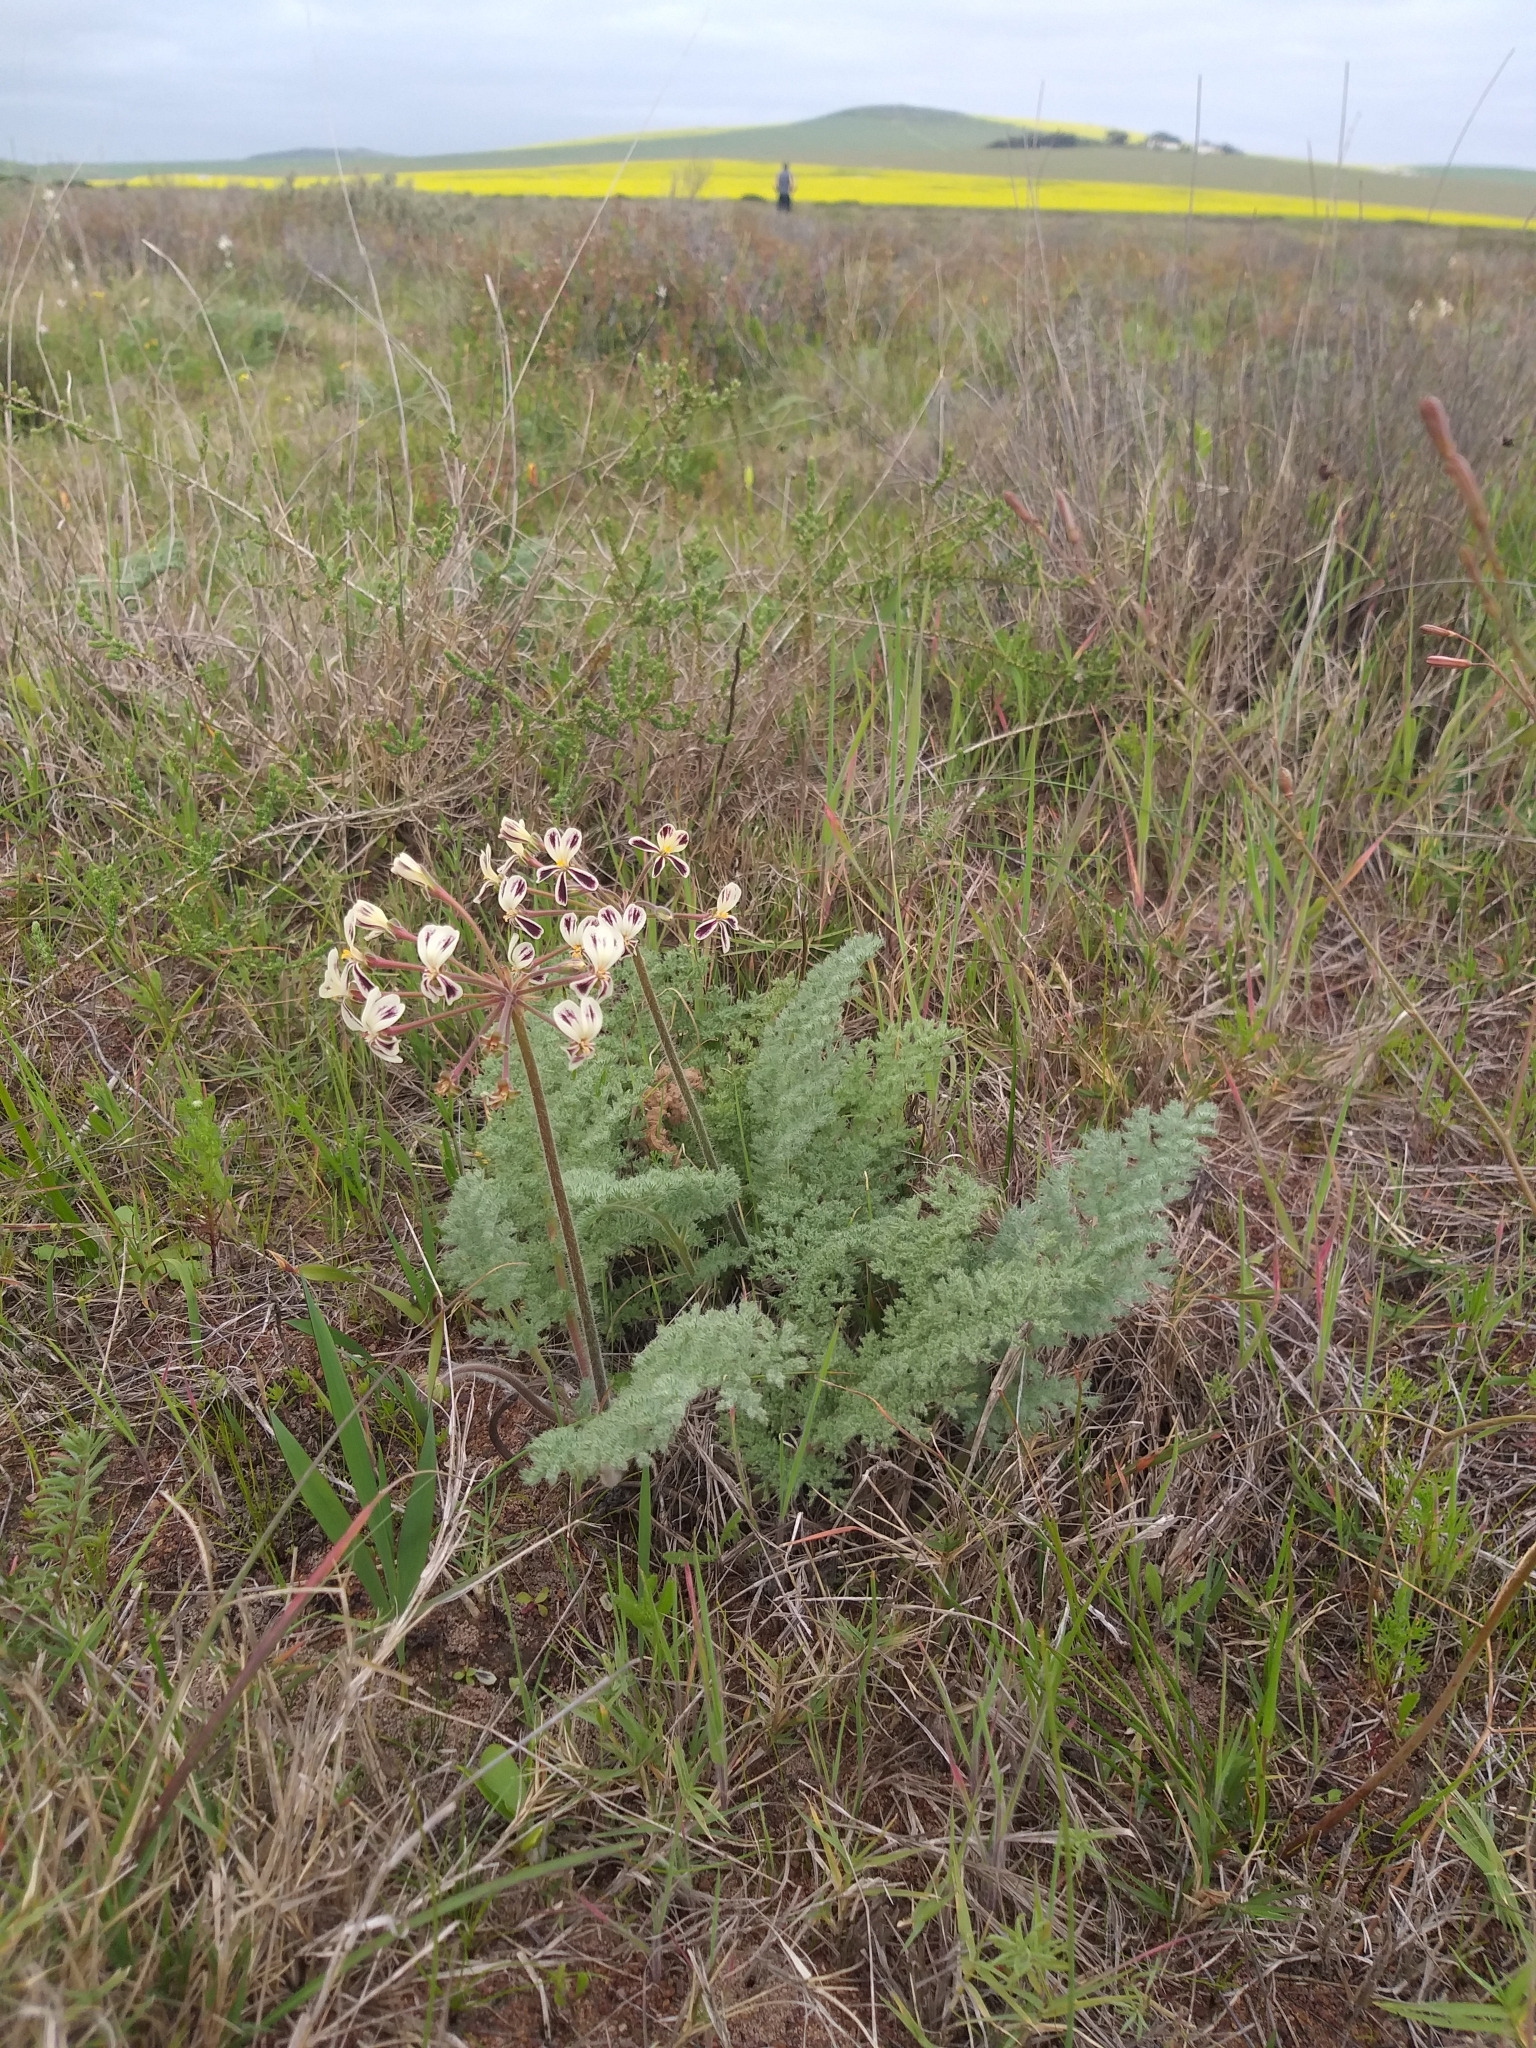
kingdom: Plantae
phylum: Tracheophyta
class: Magnoliopsida
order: Geraniales
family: Geraniaceae
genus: Pelargonium
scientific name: Pelargonium triste
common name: Night-scent pelargonium
